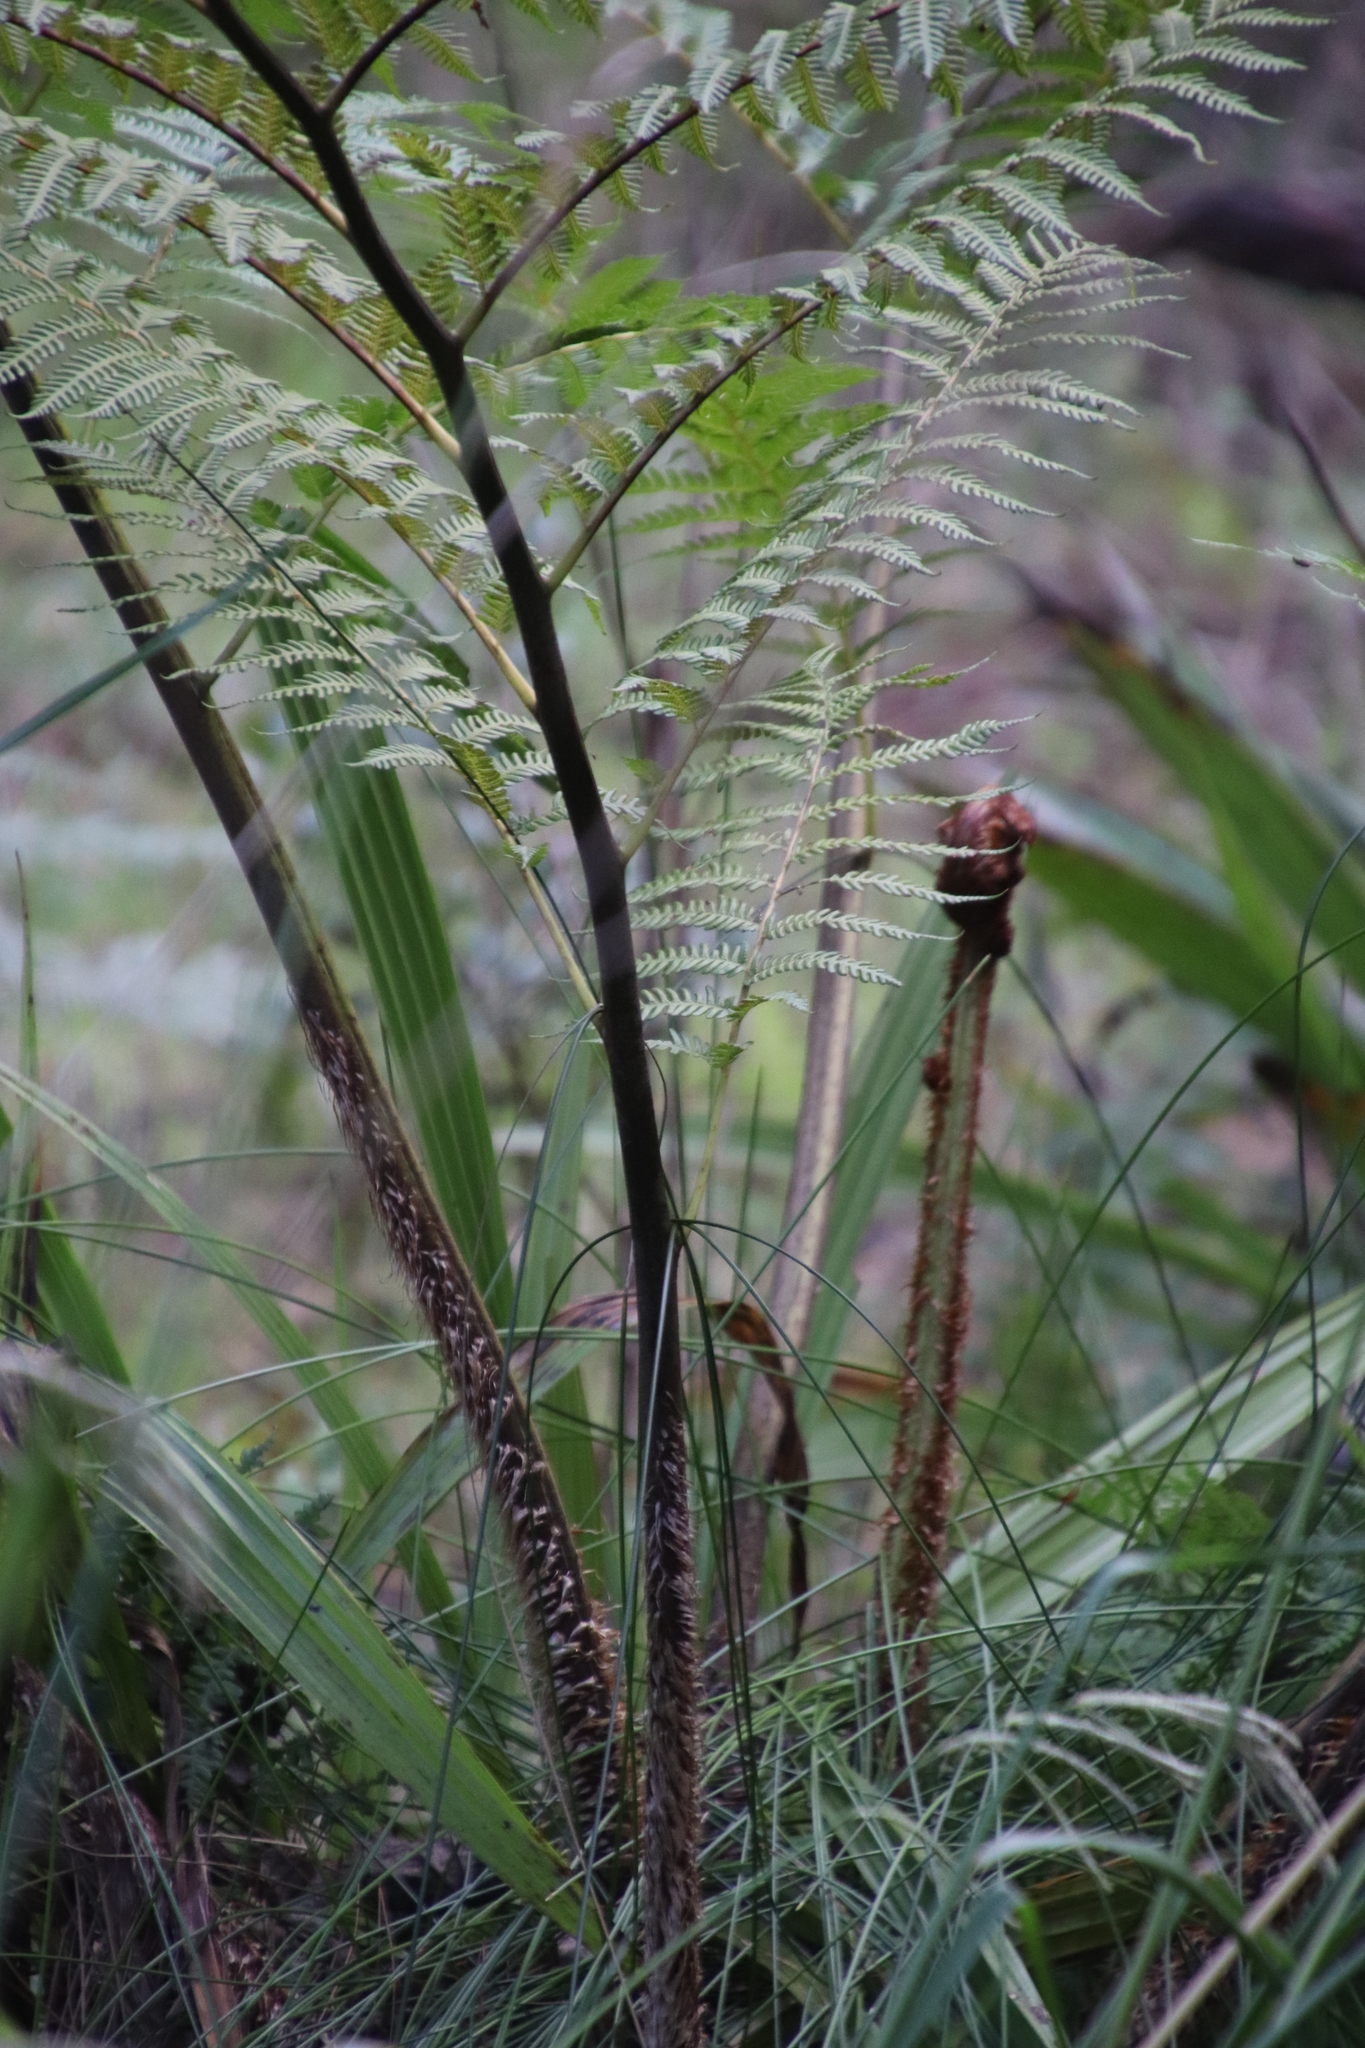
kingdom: Plantae
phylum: Tracheophyta
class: Polypodiopsida
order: Cyatheales
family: Cyatheaceae
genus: Sphaeropteris
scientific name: Sphaeropteris cooperi
